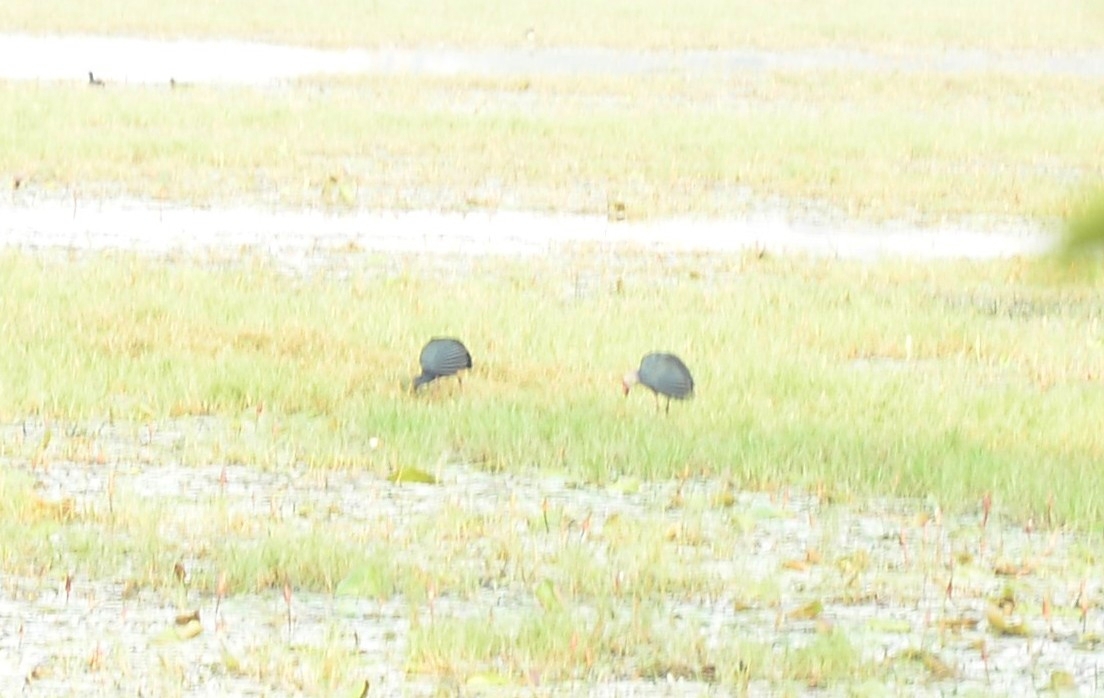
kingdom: Animalia
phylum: Chordata
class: Aves
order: Gruiformes
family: Rallidae
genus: Porphyrio
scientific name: Porphyrio porphyrio
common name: Purple swamphen
